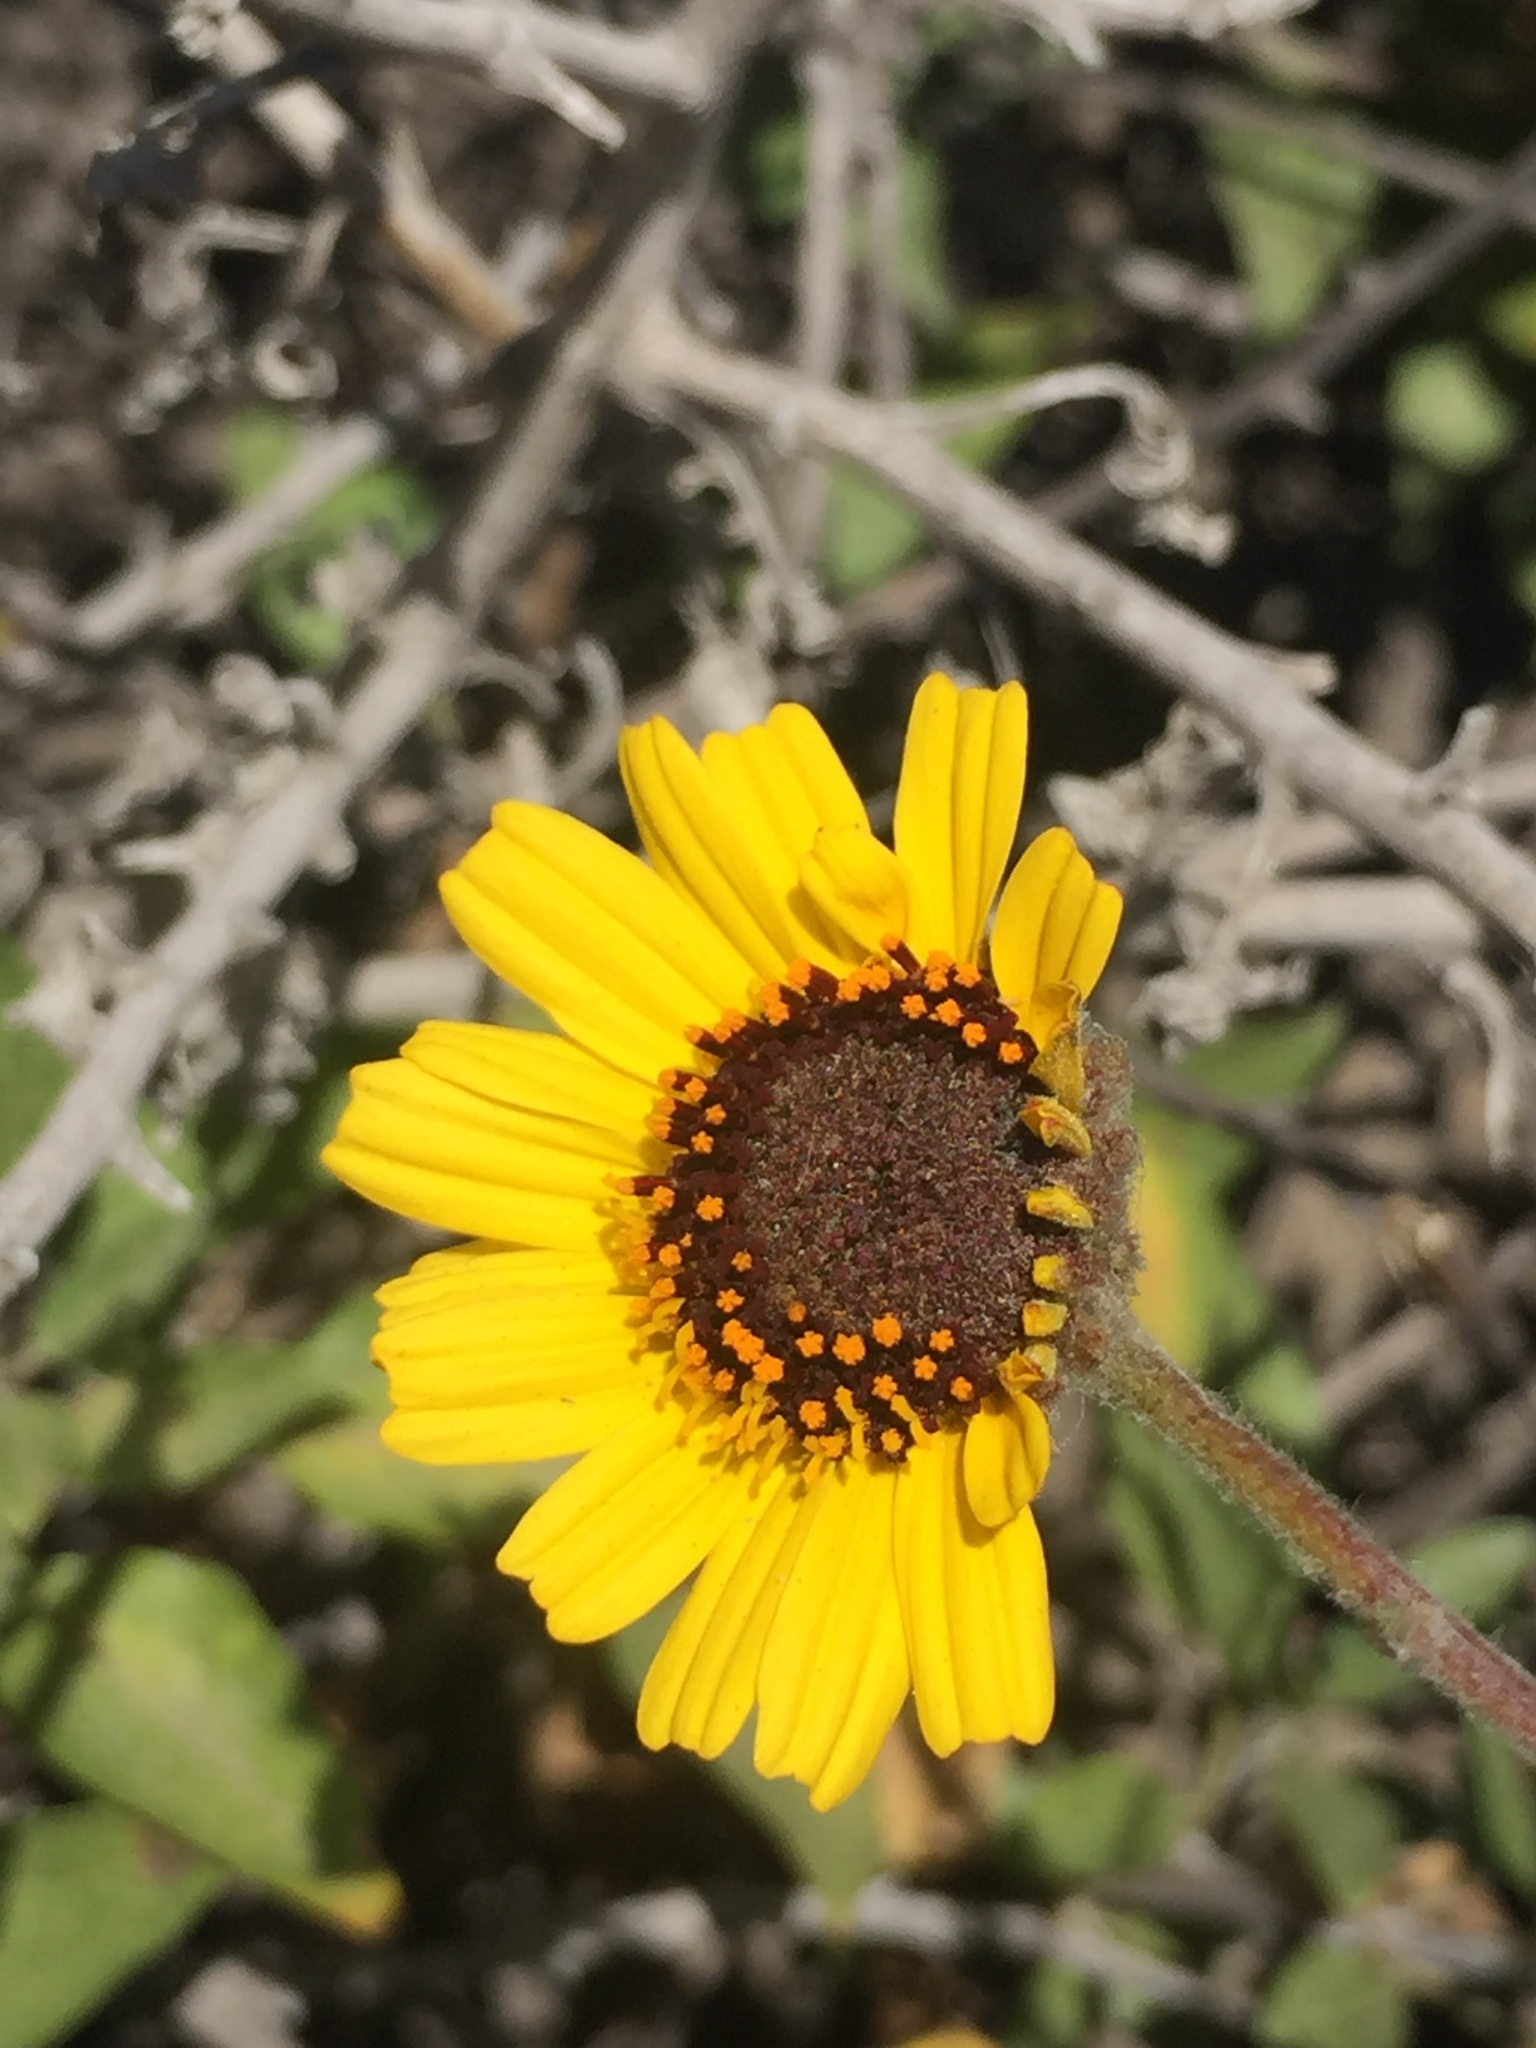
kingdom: Plantae
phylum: Tracheophyta
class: Magnoliopsida
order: Asterales
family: Asteraceae
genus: Encelia
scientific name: Encelia californica
